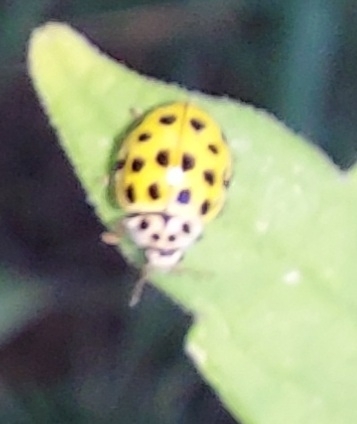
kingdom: Animalia
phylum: Arthropoda
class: Insecta
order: Coleoptera
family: Coccinellidae
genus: Psyllobora
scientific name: Psyllobora vigintiduopunctata
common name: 22-spot ladybird
